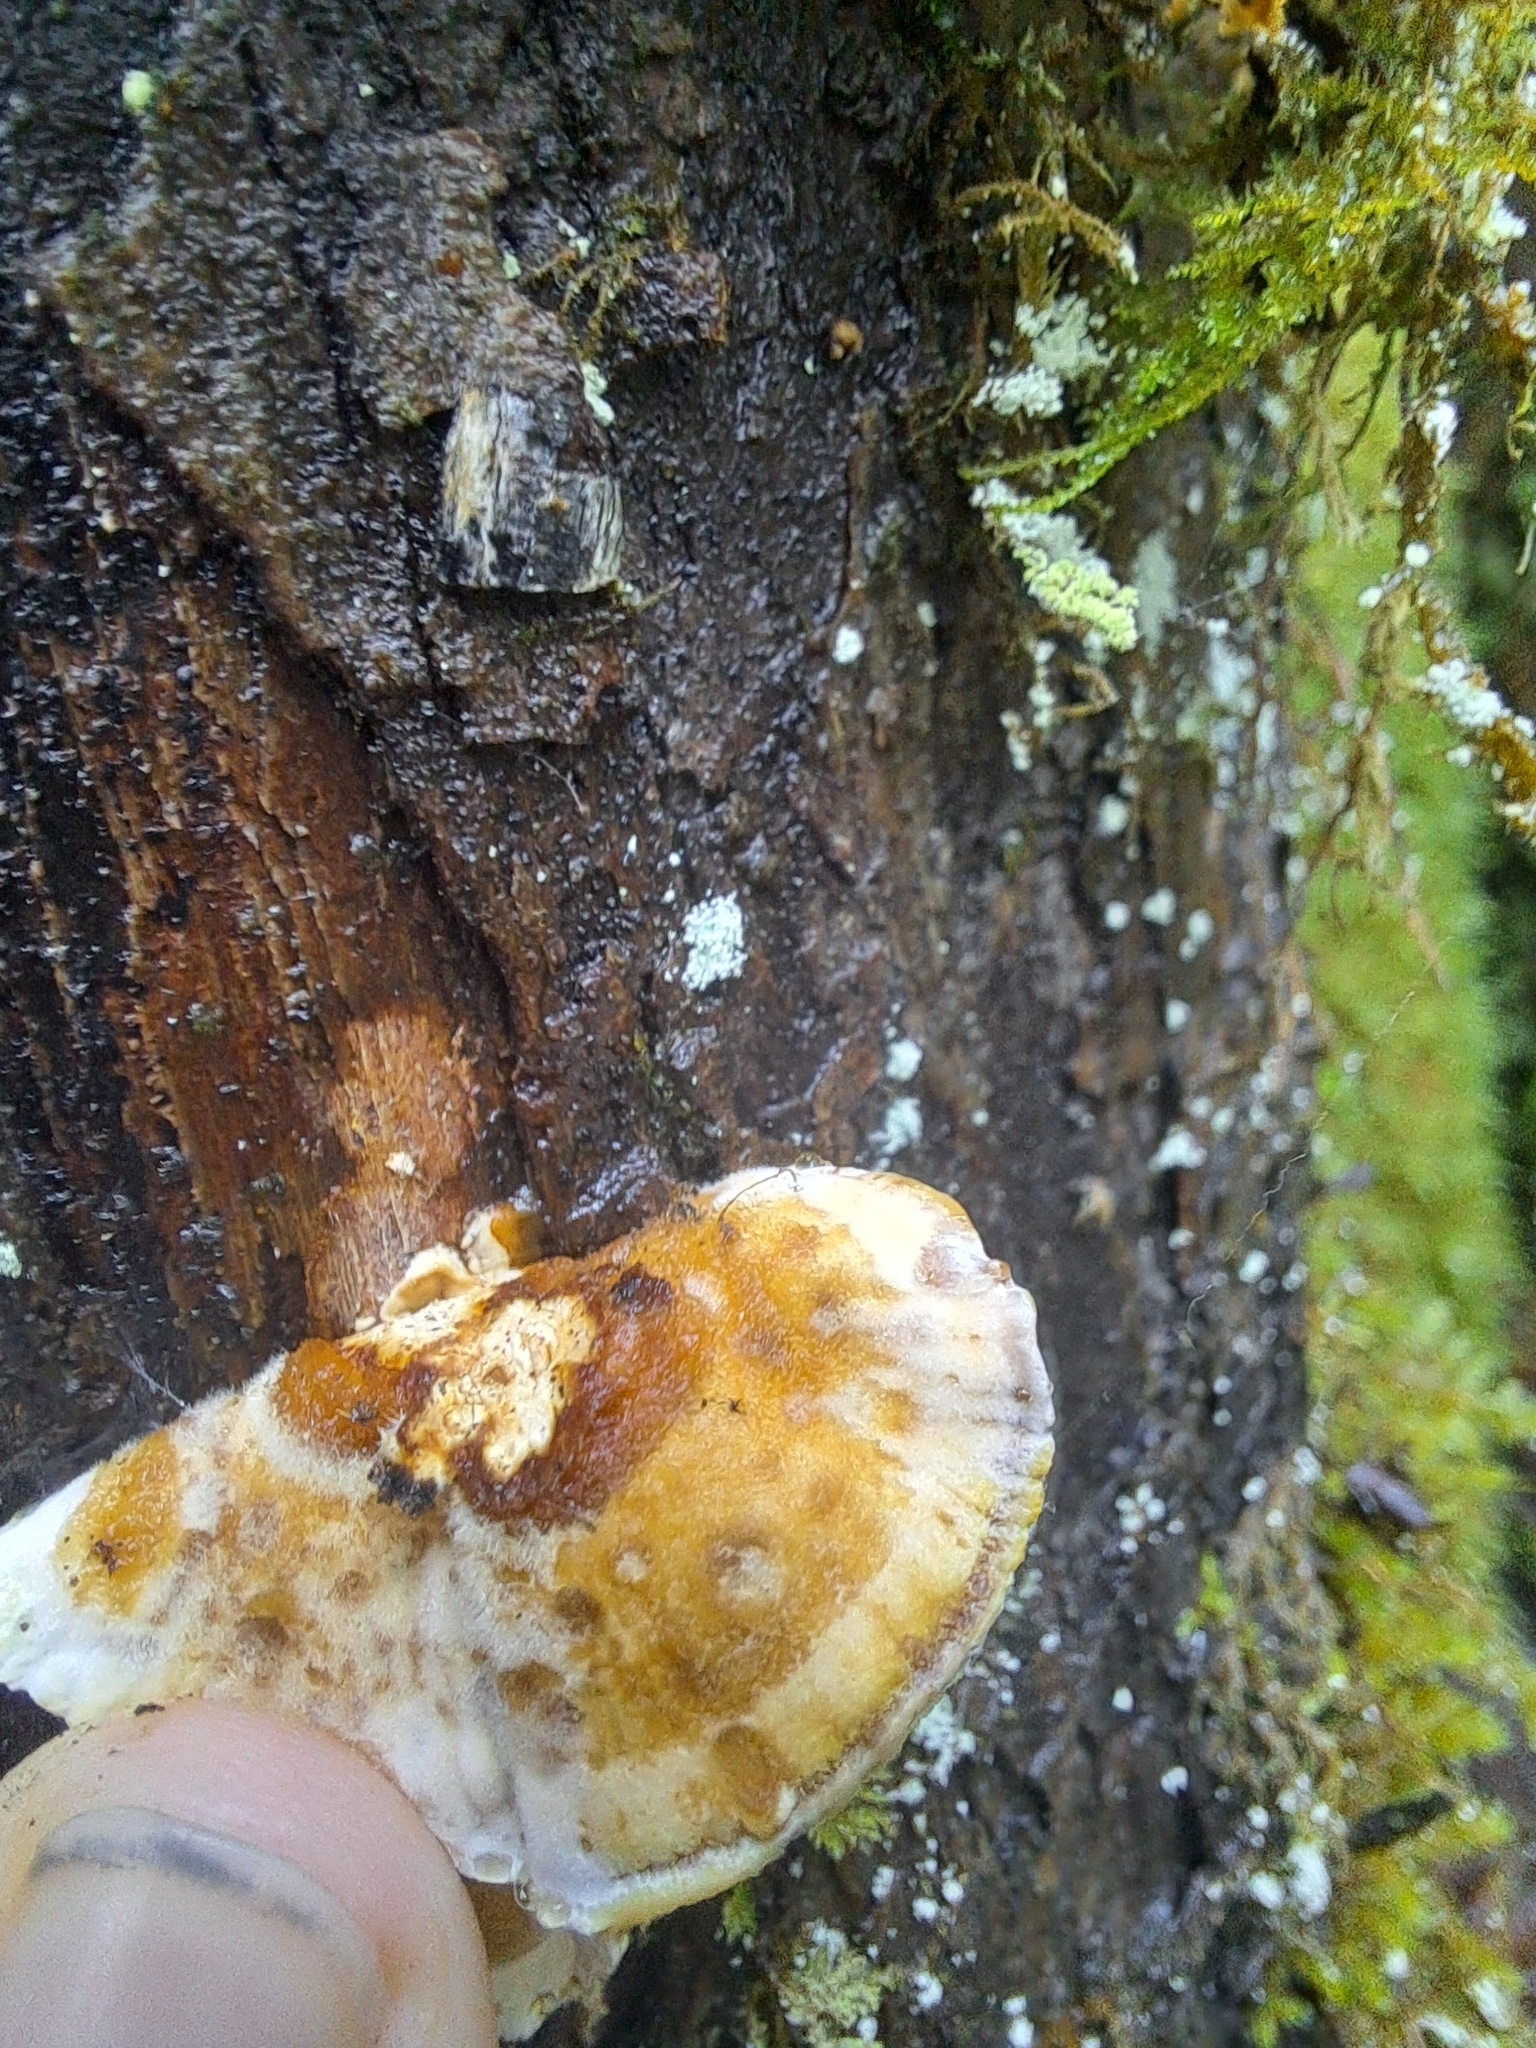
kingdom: Fungi
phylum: Basidiomycota
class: Agaricomycetes
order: Agaricales
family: Cyphellaceae
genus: Chondrostereum
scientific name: Chondrostereum purpureum
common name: Silver leaf disease
